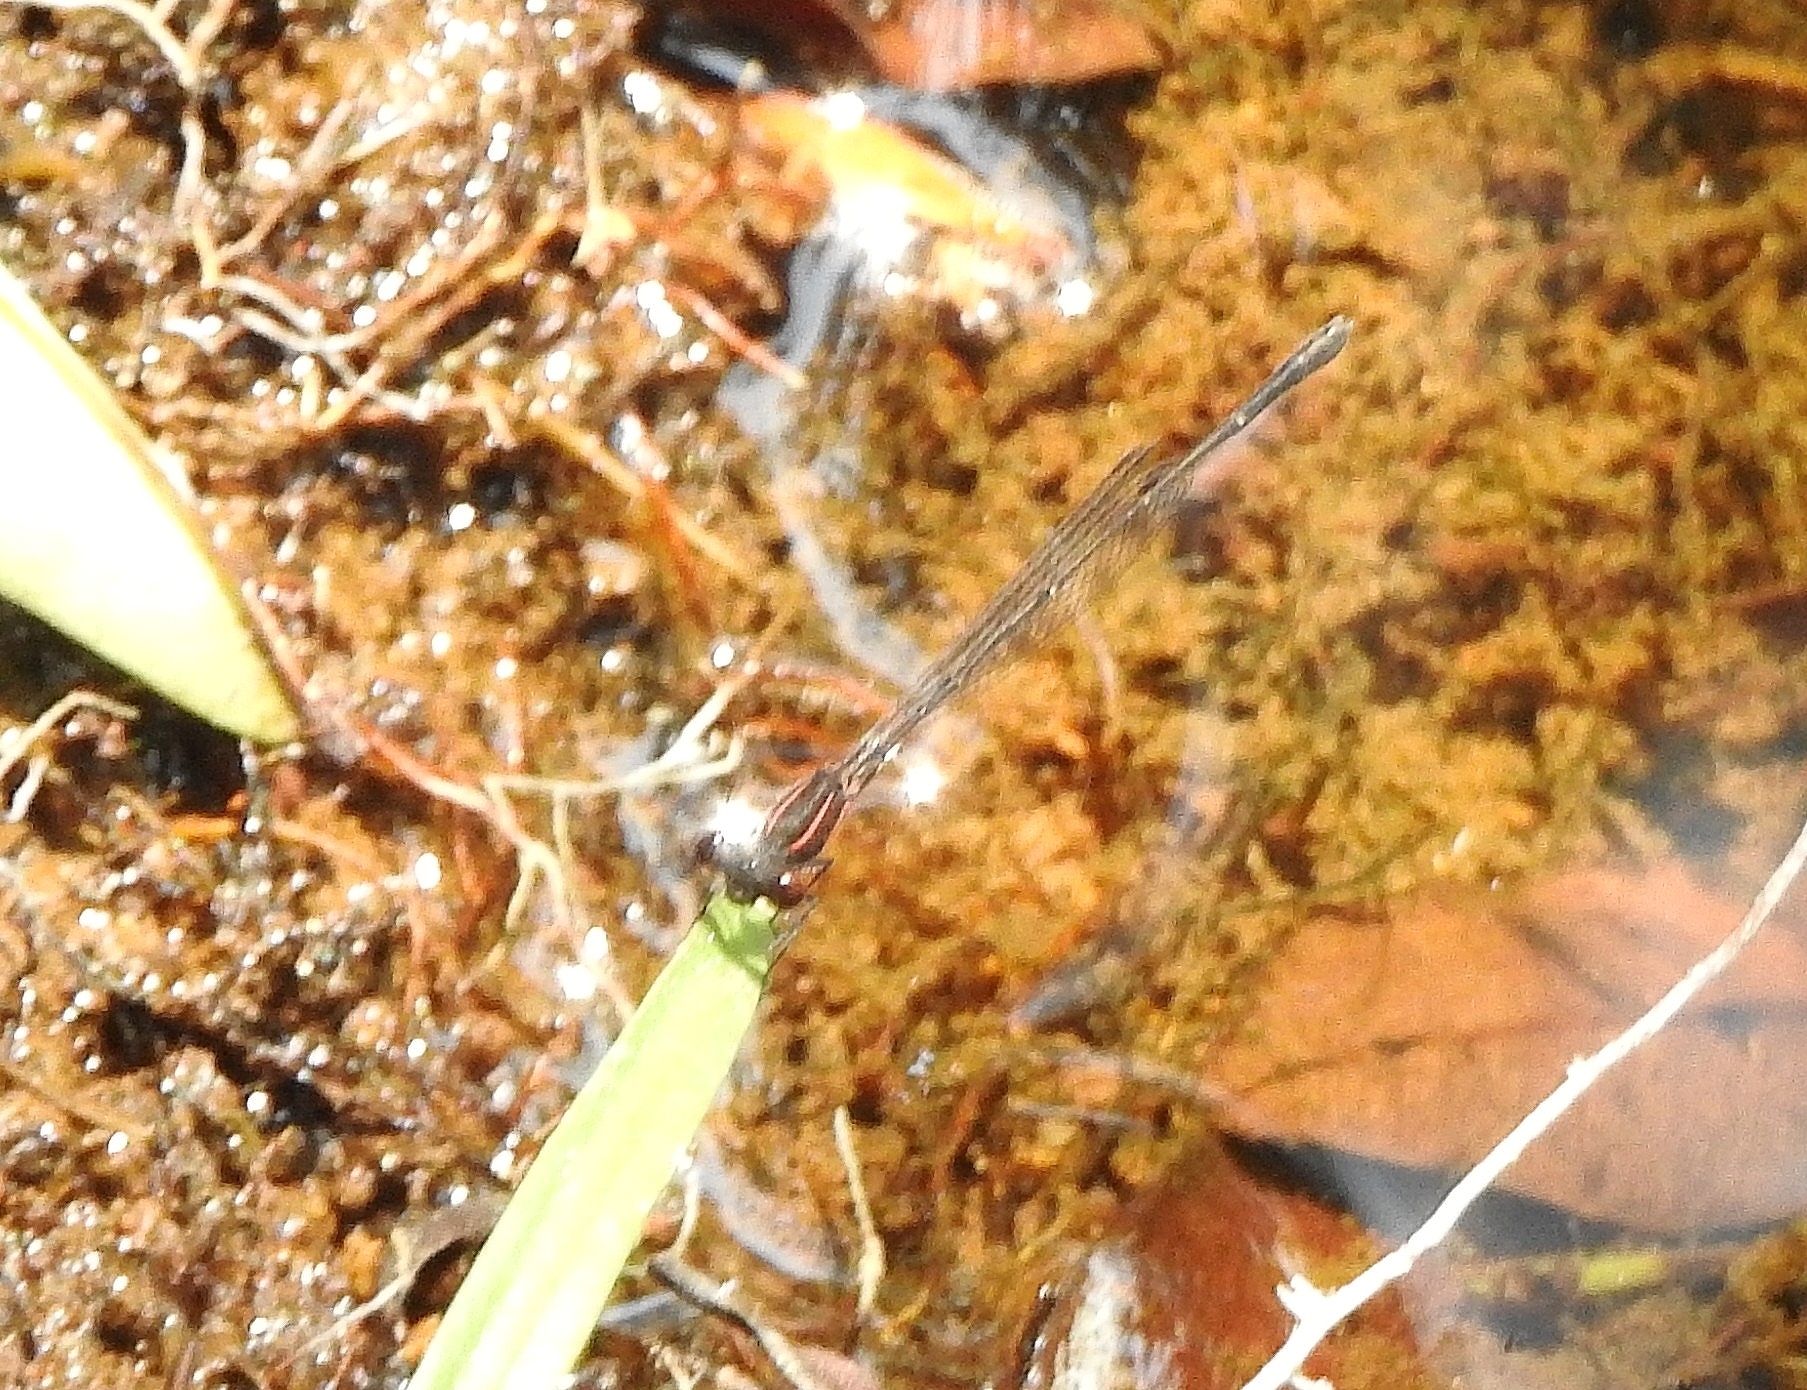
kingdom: Animalia
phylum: Arthropoda
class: Insecta
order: Odonata
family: Platycnemididae
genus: Prodasineura
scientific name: Prodasineura verticalis
